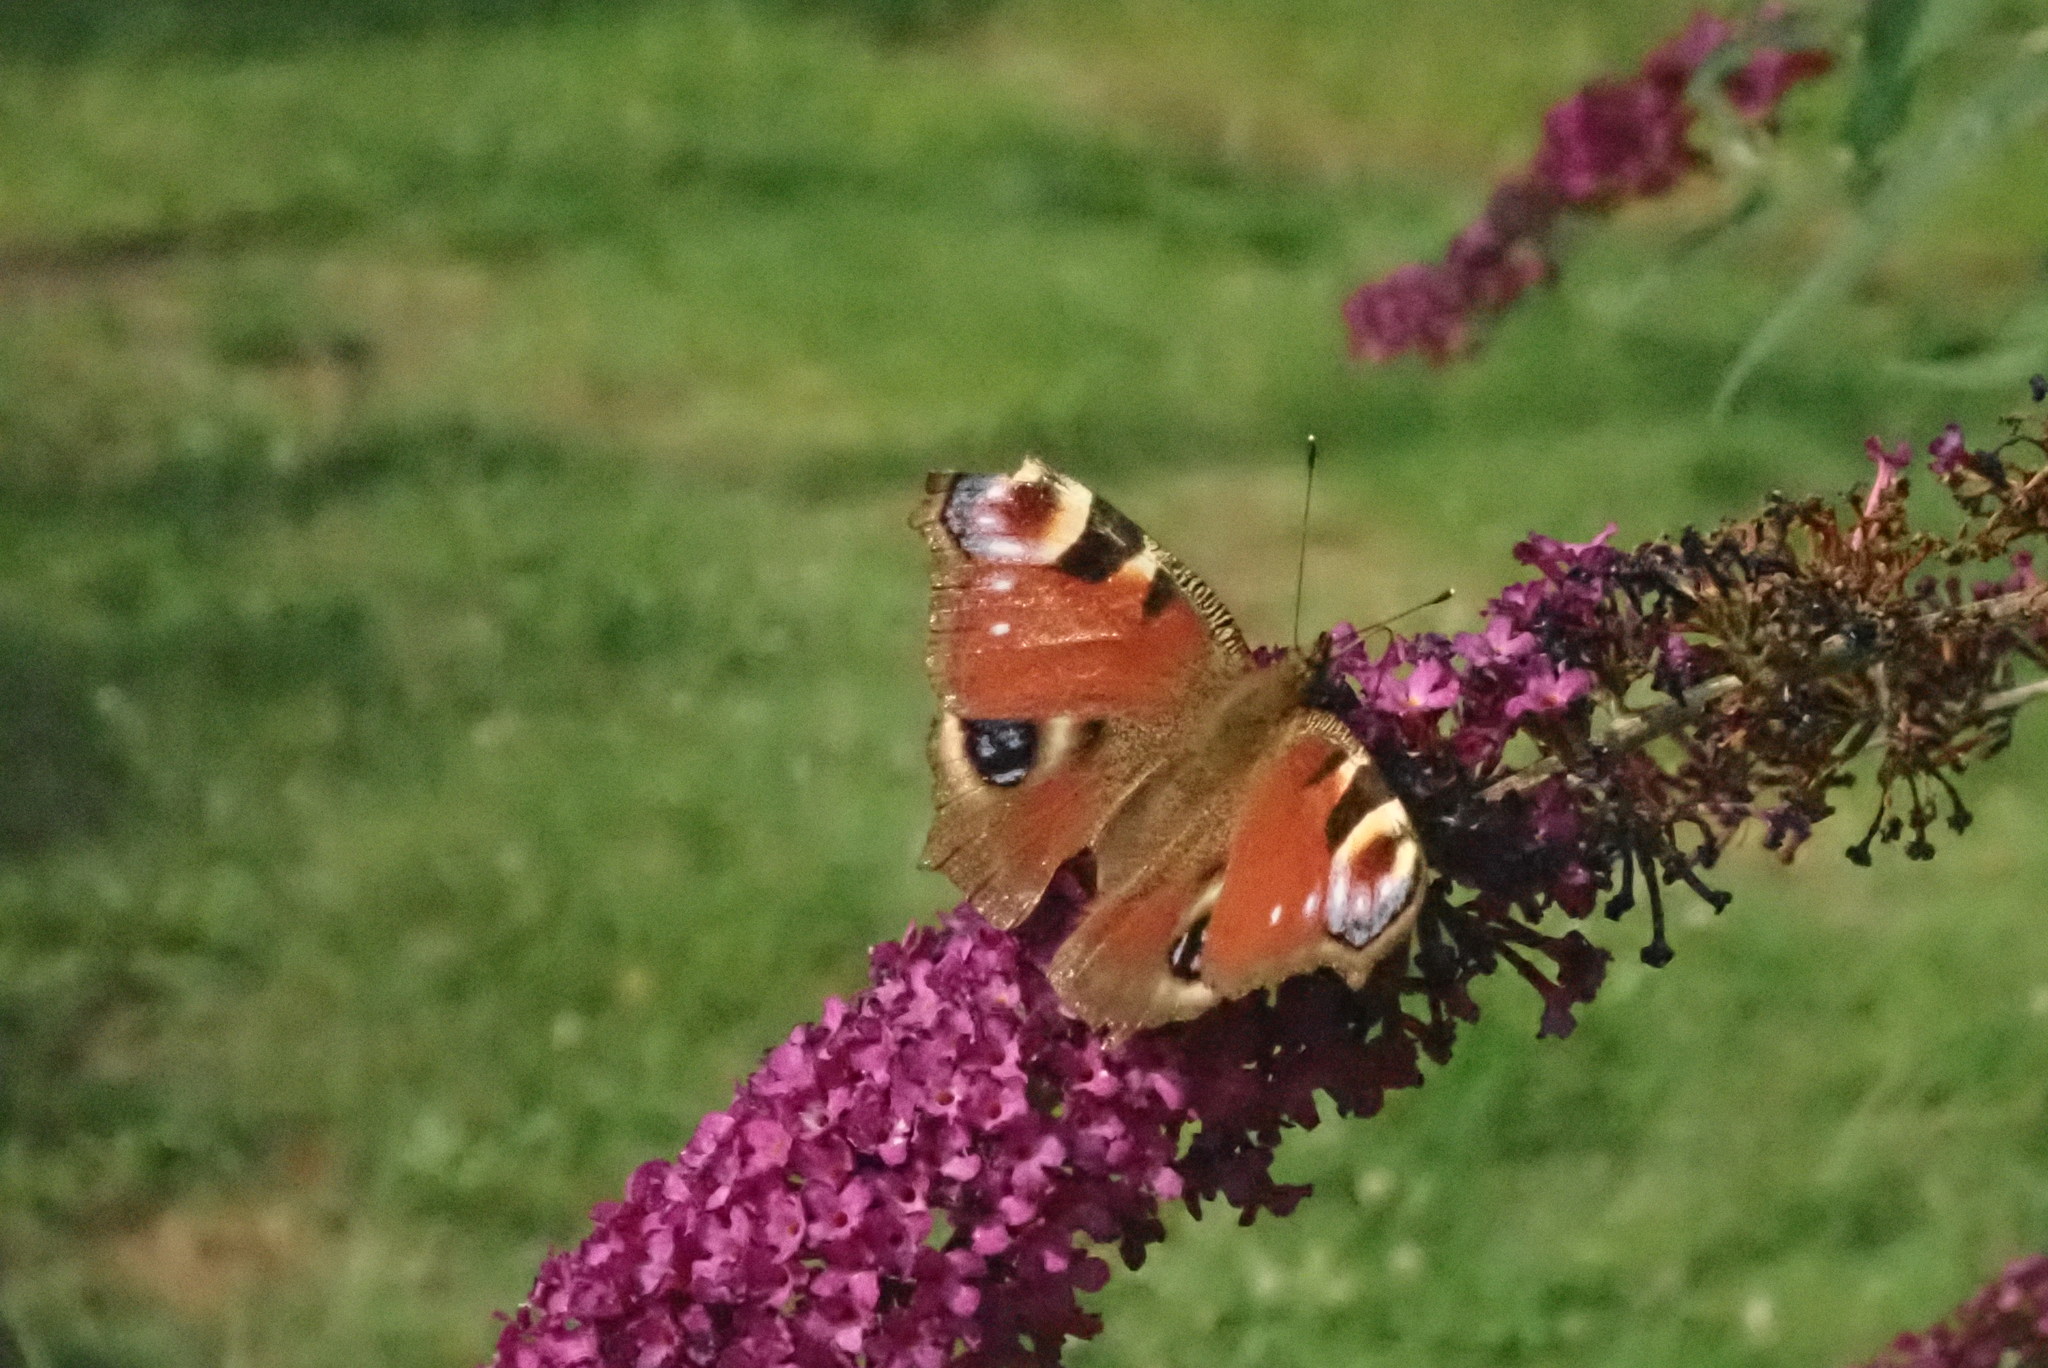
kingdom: Animalia
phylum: Arthropoda
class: Insecta
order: Lepidoptera
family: Nymphalidae
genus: Aglais
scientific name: Aglais io
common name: Peacock
